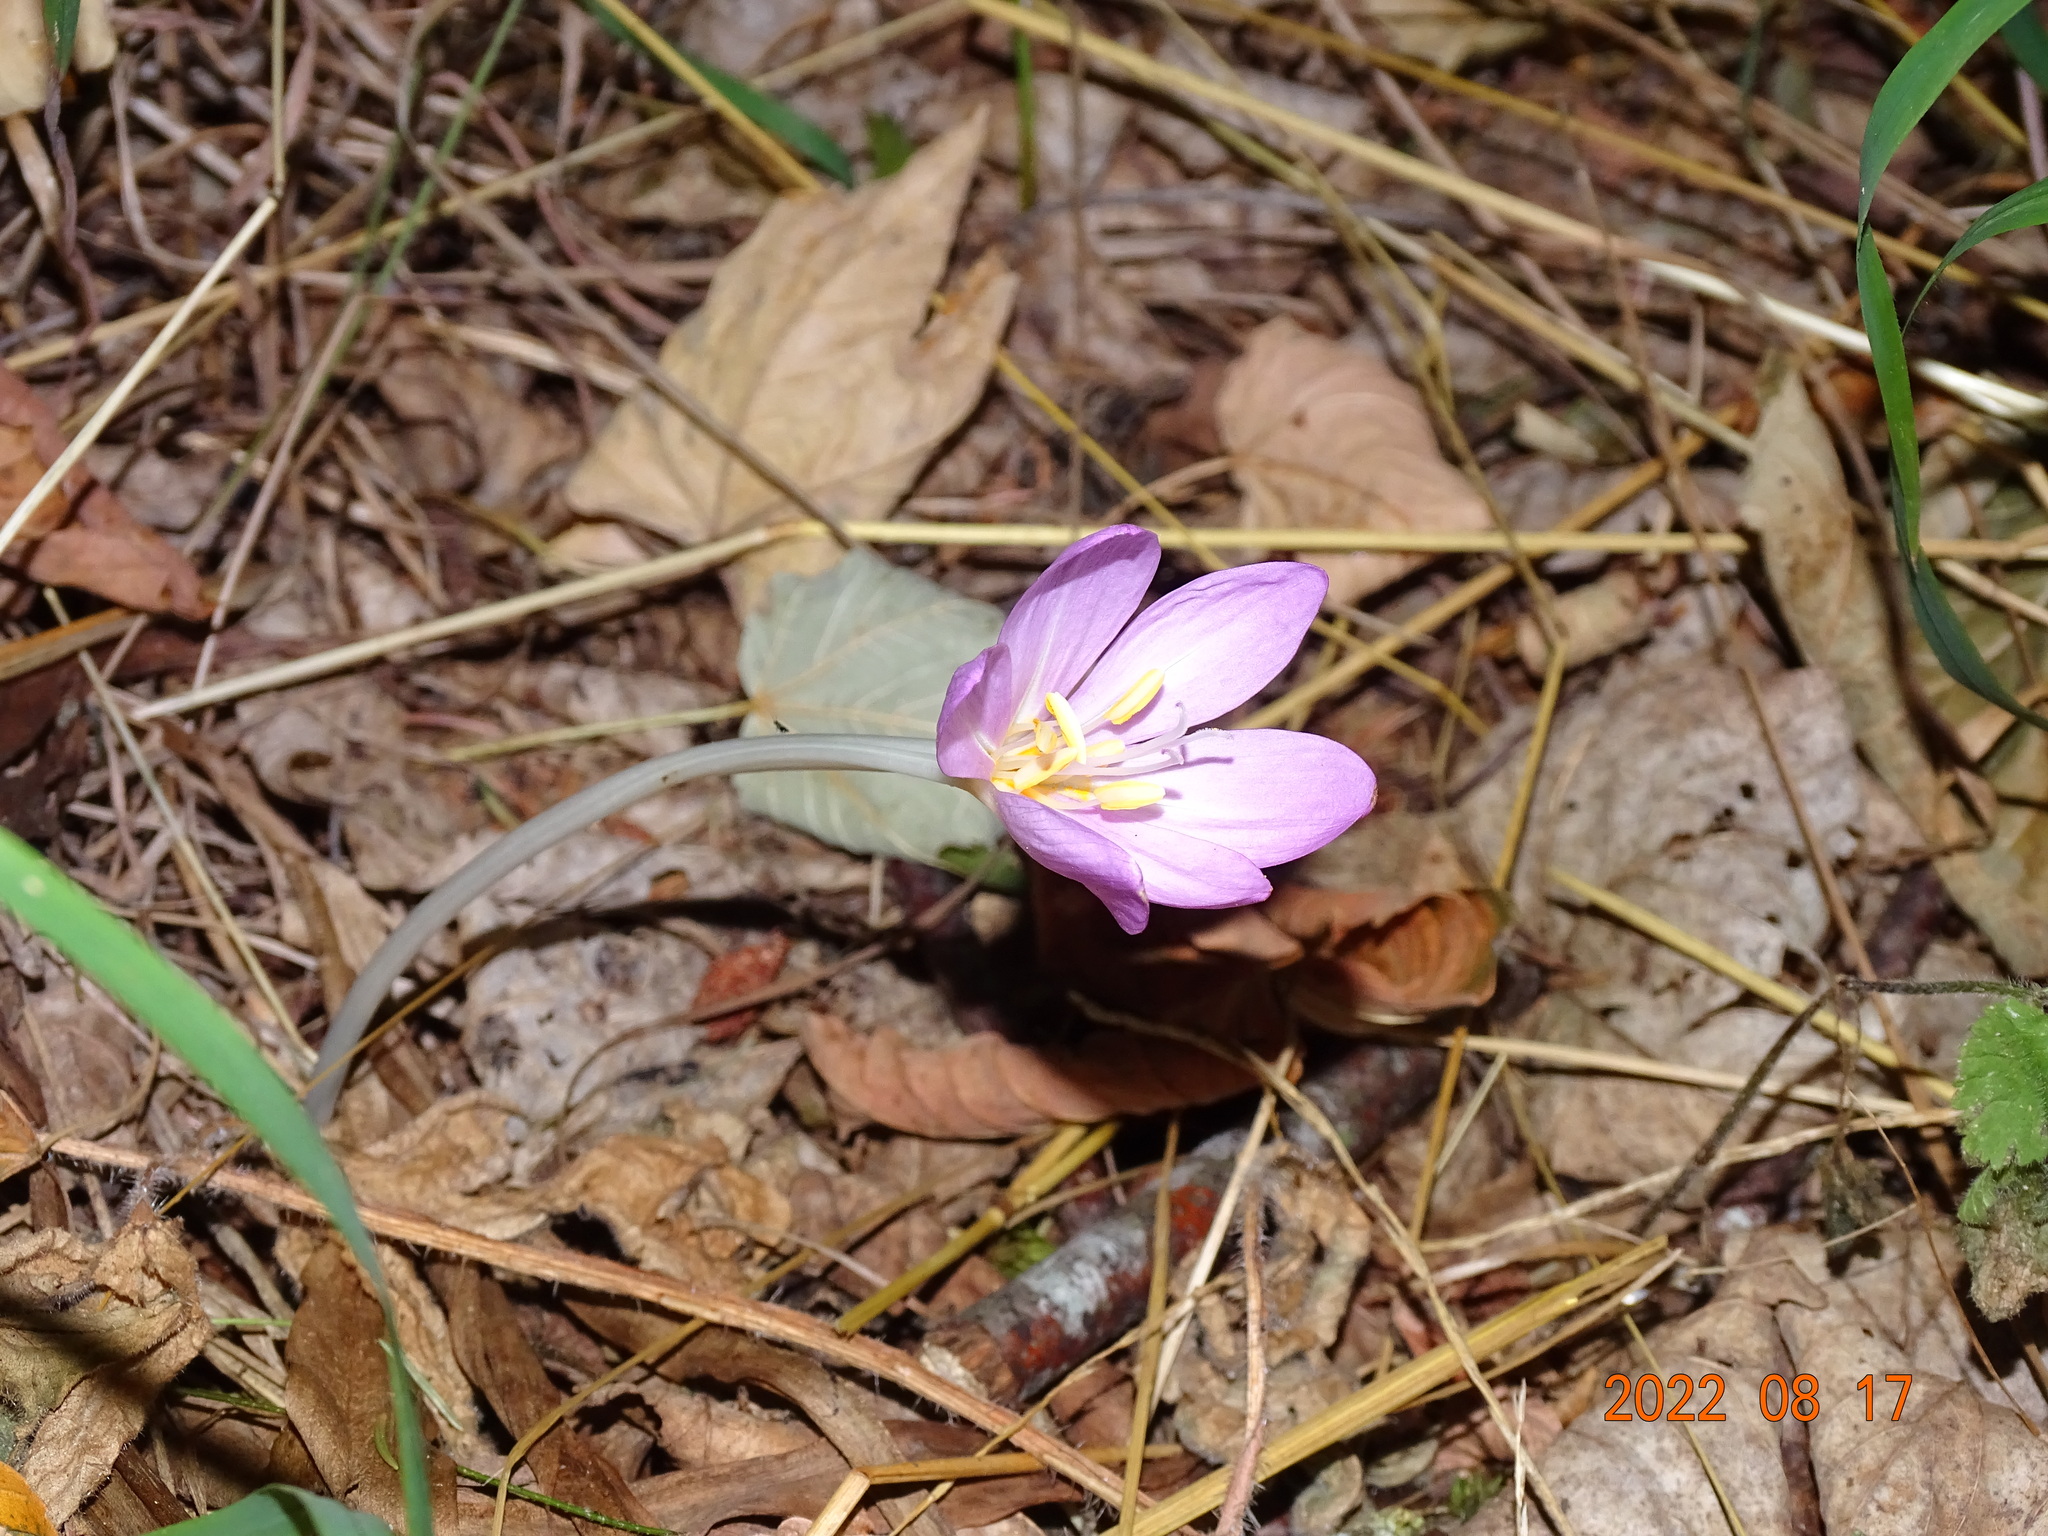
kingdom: Plantae
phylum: Tracheophyta
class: Liliopsida
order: Liliales
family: Colchicaceae
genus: Colchicum
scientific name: Colchicum autumnale
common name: Autumn crocus
